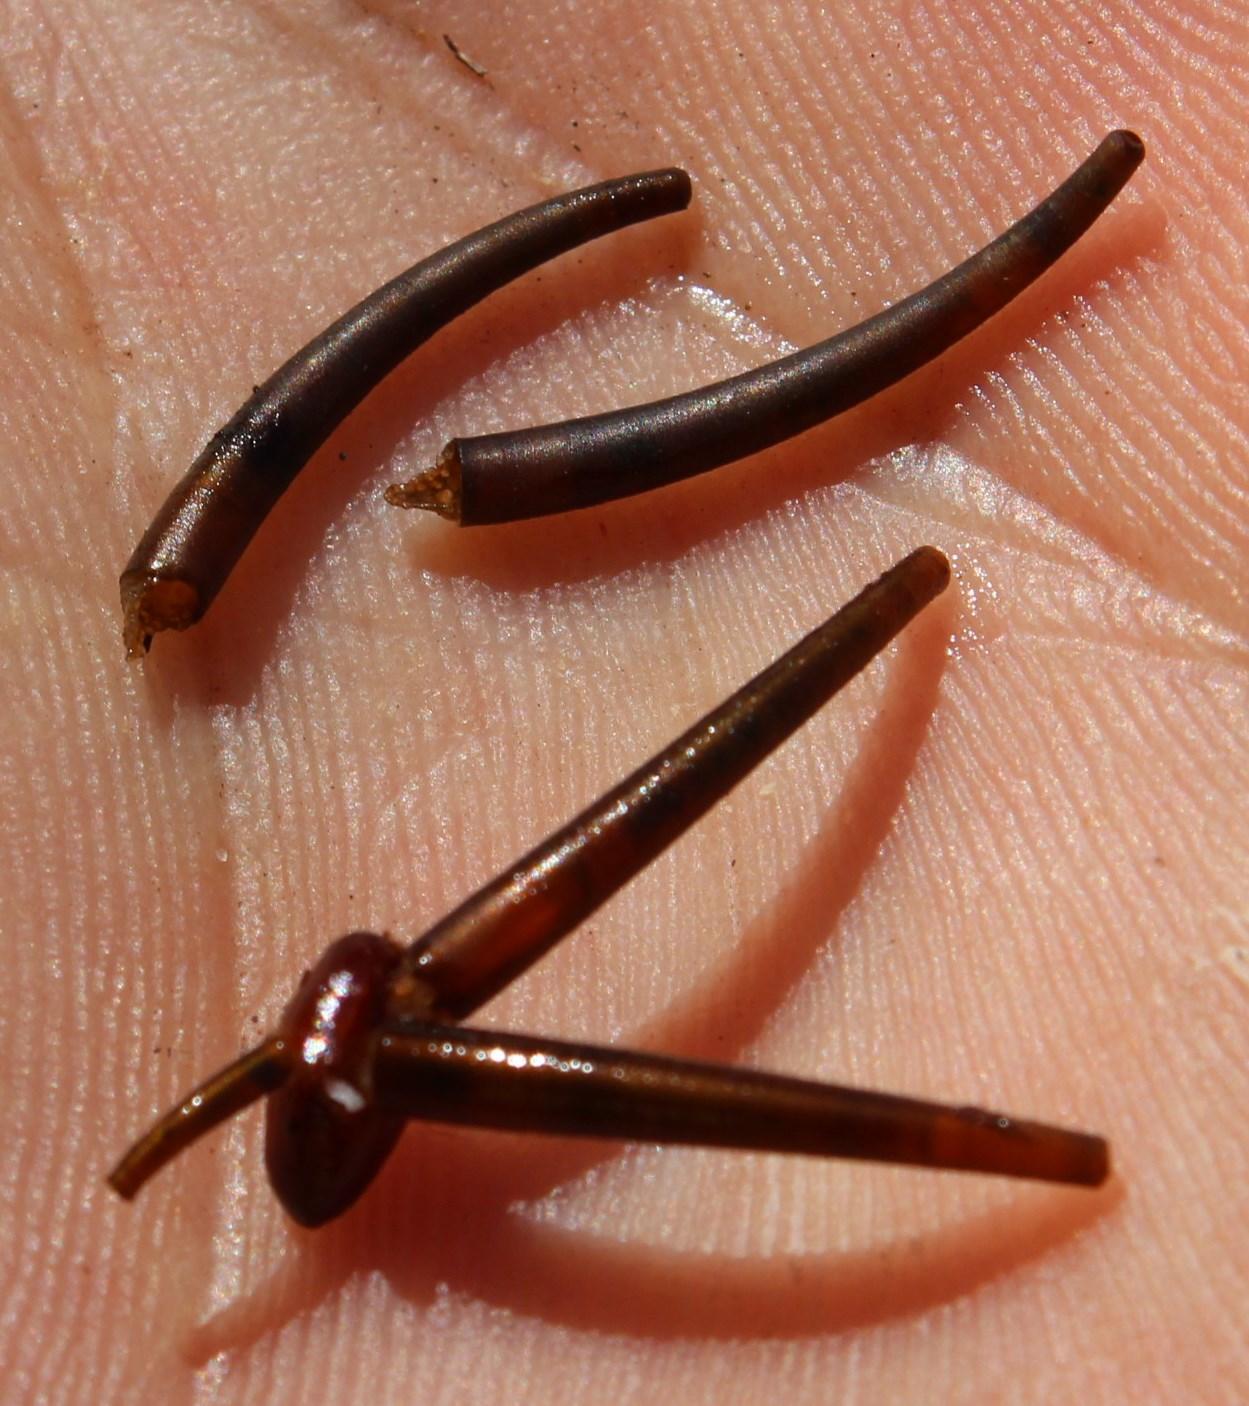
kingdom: Animalia
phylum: Arthropoda
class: Insecta
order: Trichoptera
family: Leptoceridae
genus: Athripsodes
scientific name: Athripsodes bergensis
